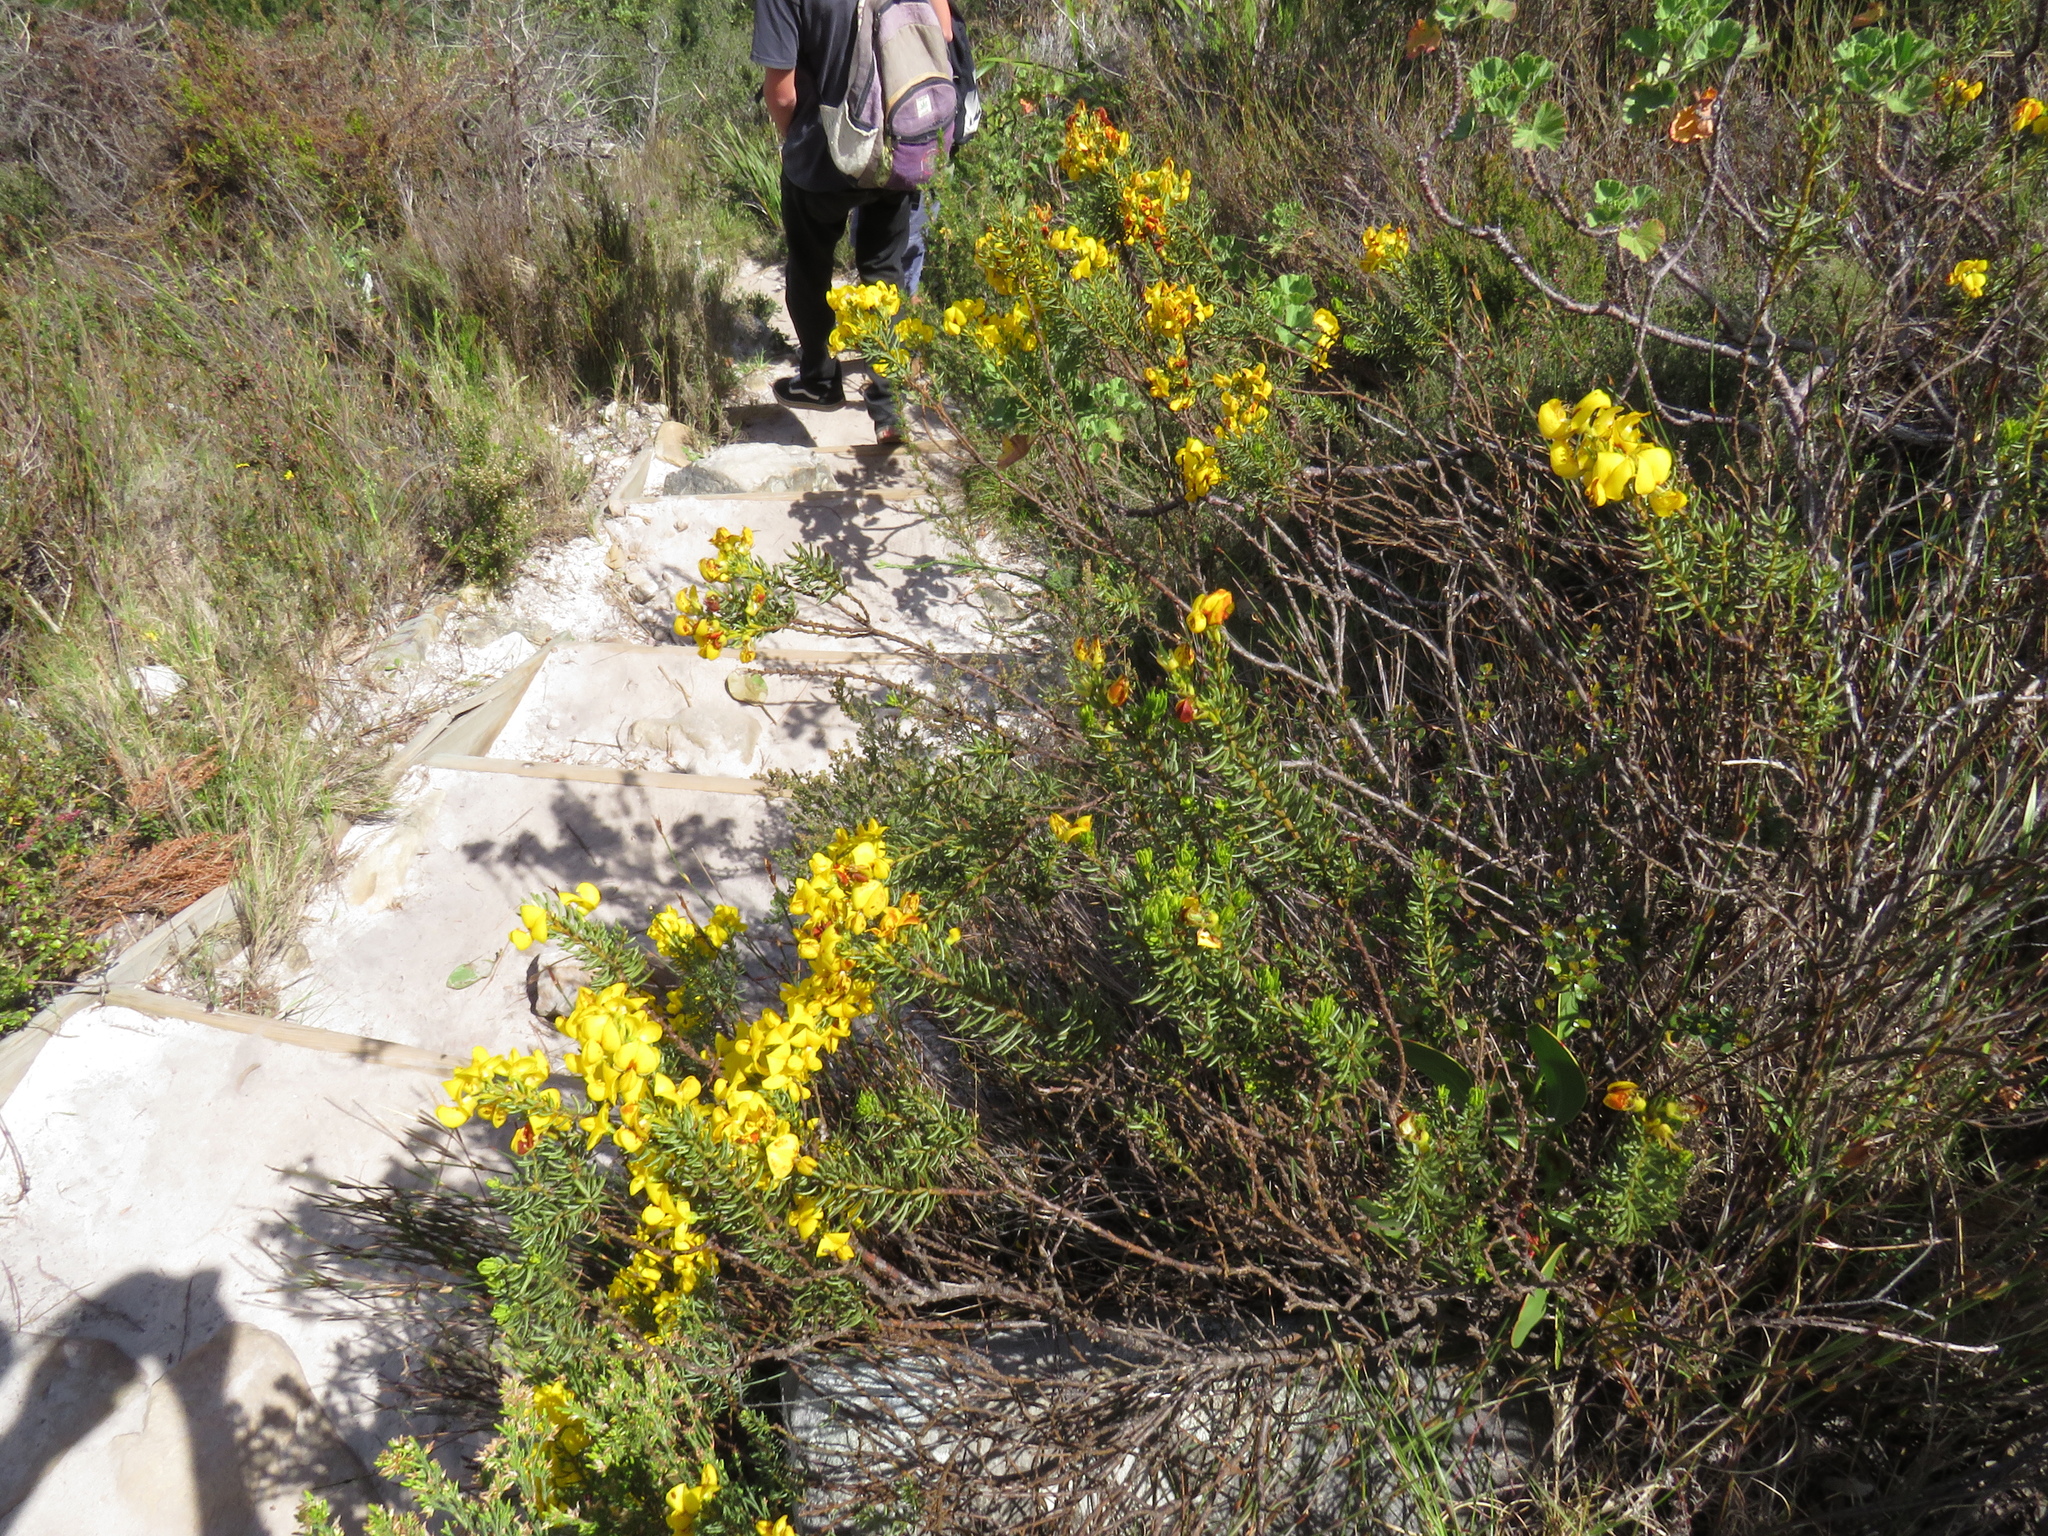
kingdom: Plantae
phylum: Tracheophyta
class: Magnoliopsida
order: Fabales
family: Fabaceae
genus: Cyclopia
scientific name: Cyclopia genistoides
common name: Honeybush tea
